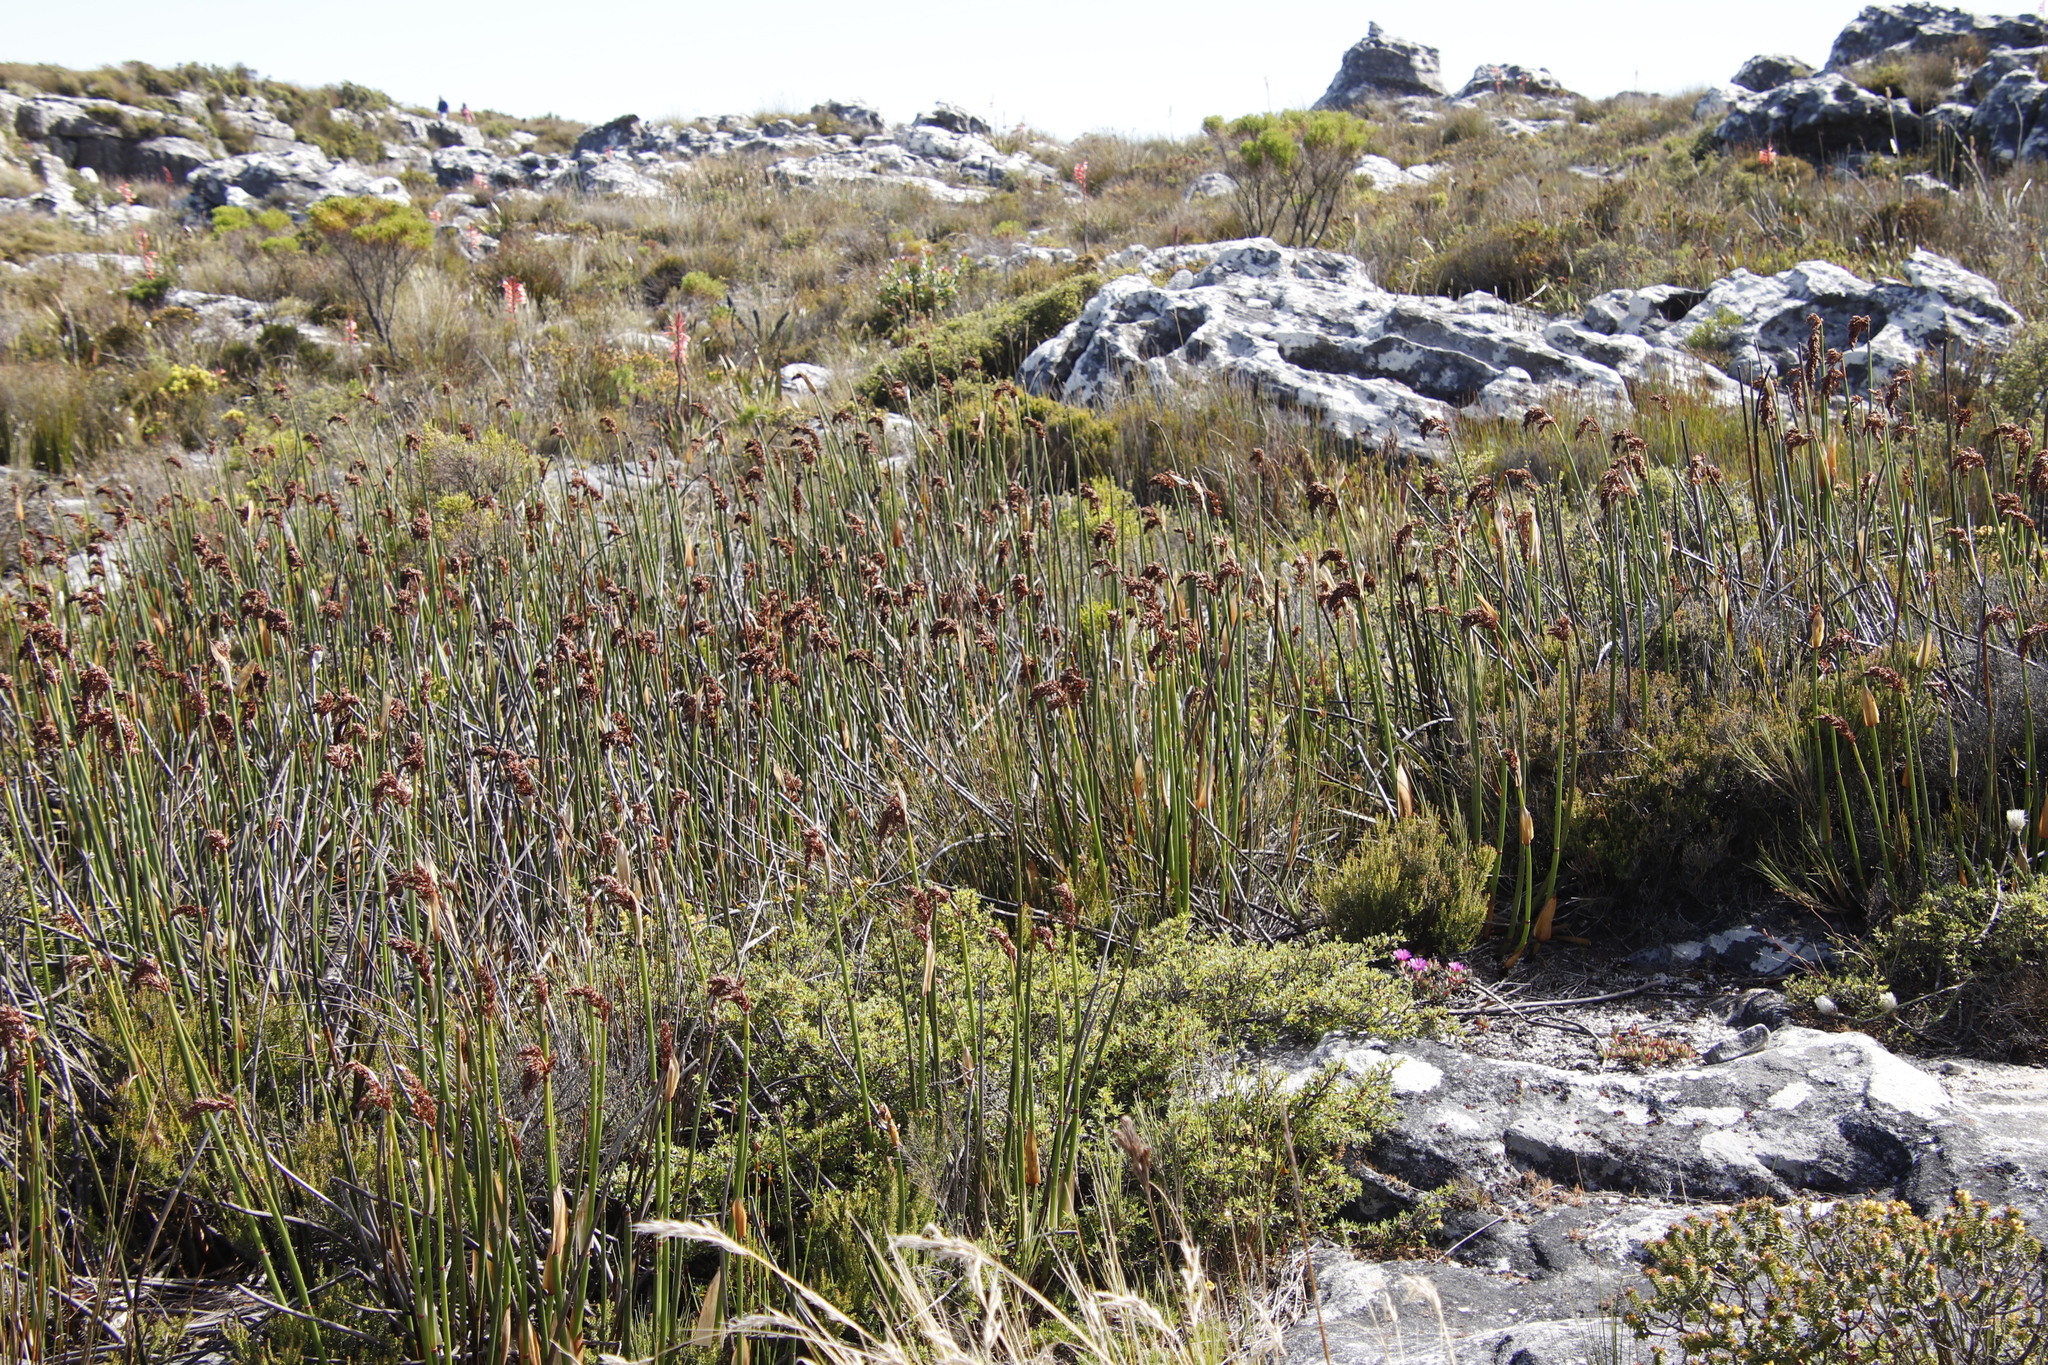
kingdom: Plantae
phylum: Tracheophyta
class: Liliopsida
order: Poales
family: Restionaceae
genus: Elegia
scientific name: Elegia mucronata
